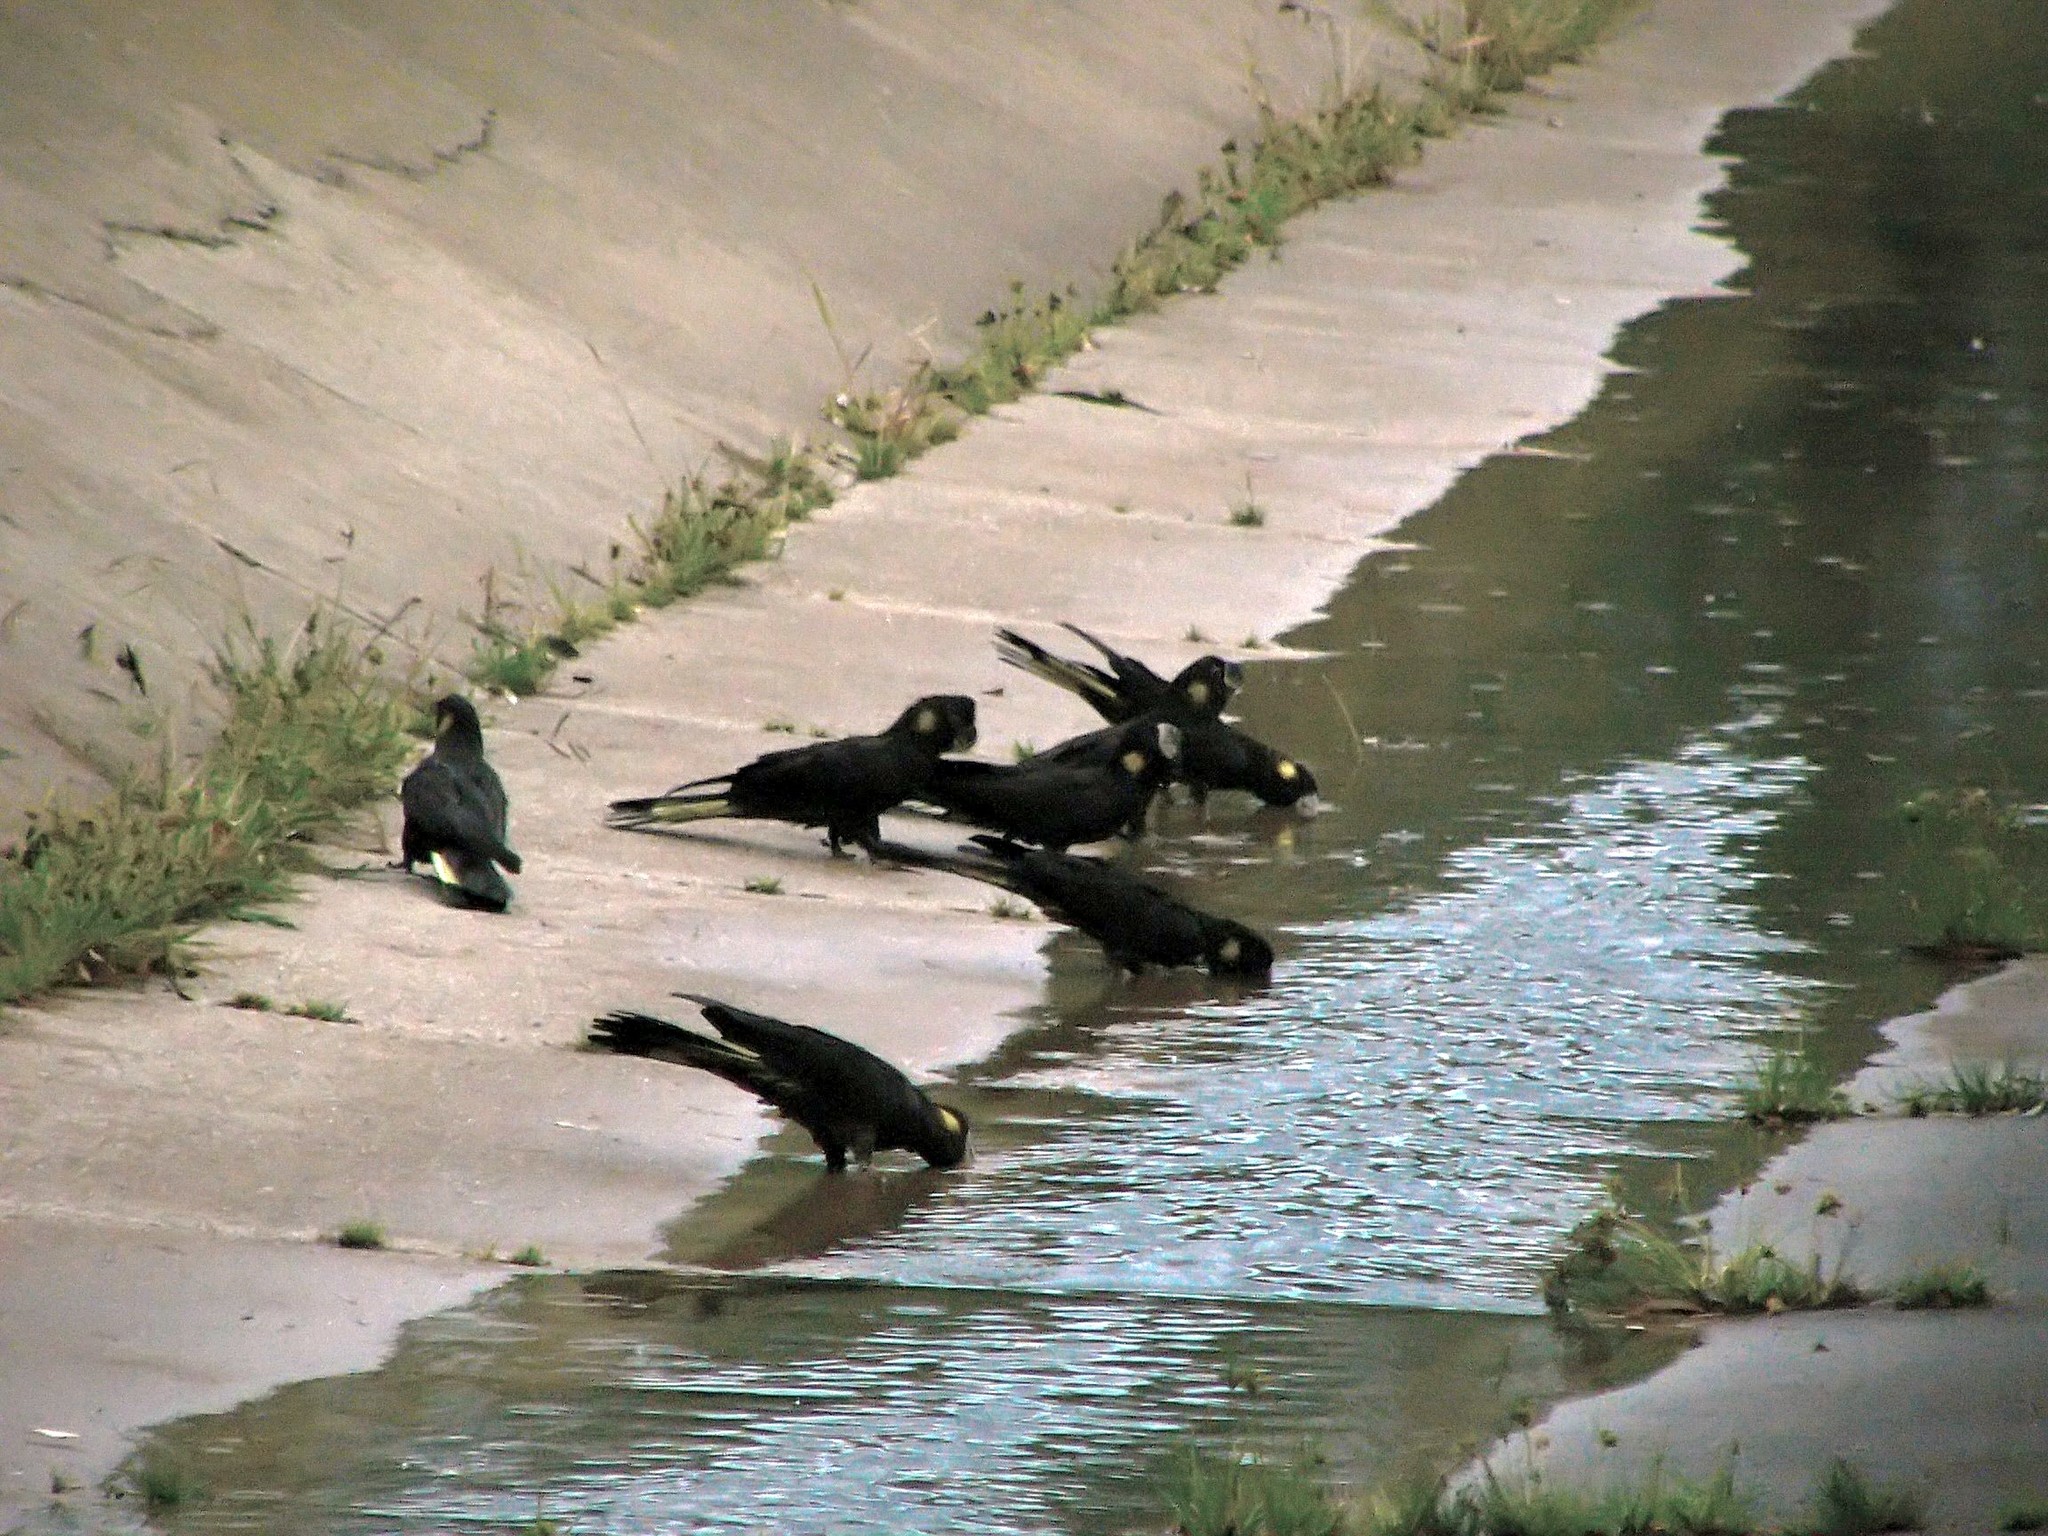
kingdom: Animalia
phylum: Chordata
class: Aves
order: Psittaciformes
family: Cacatuidae
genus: Zanda
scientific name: Zanda funerea
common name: Yellow-tailed black-cockatoo
